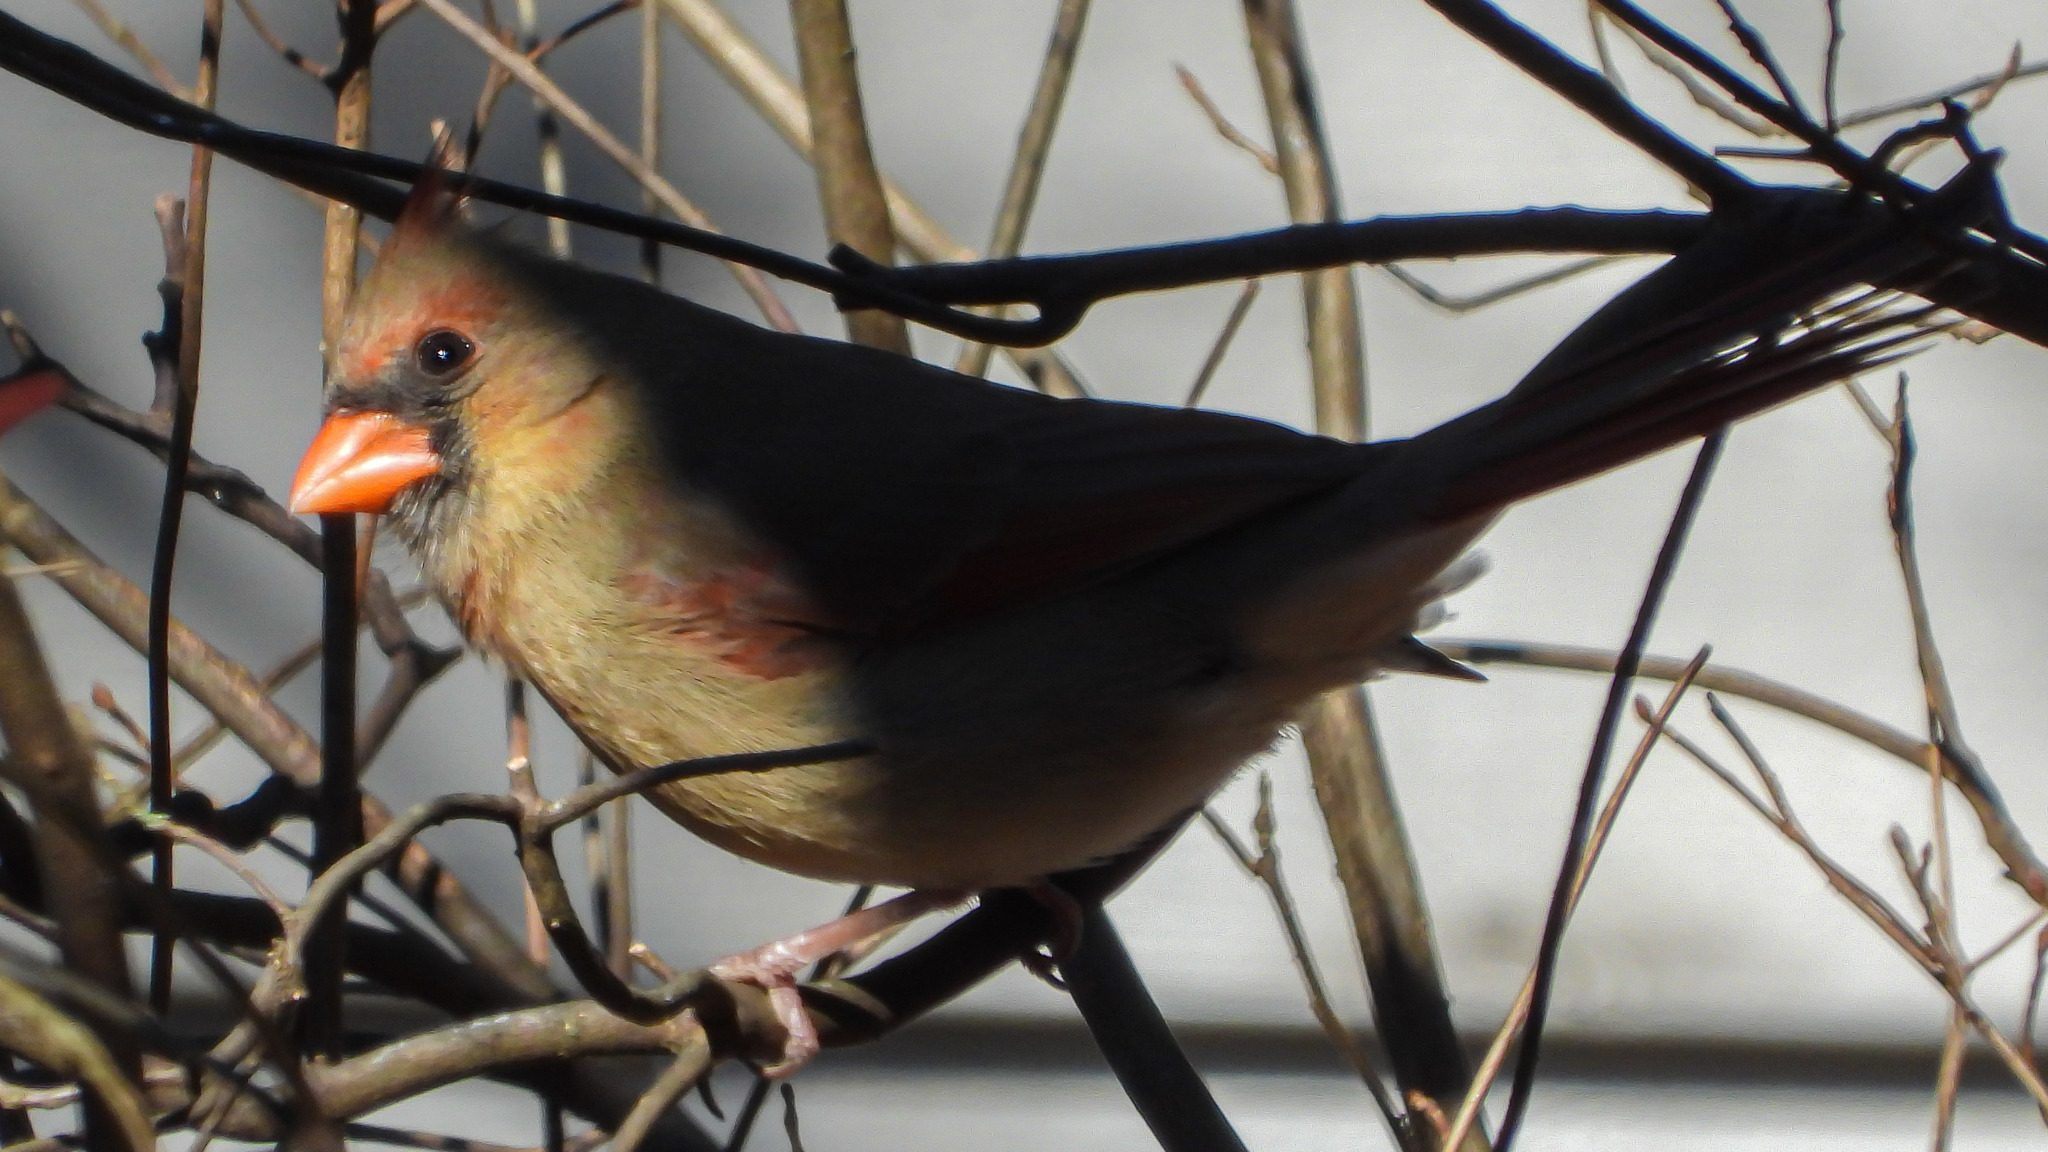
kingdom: Animalia
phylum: Chordata
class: Aves
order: Passeriformes
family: Cardinalidae
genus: Cardinalis
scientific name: Cardinalis cardinalis
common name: Northern cardinal
